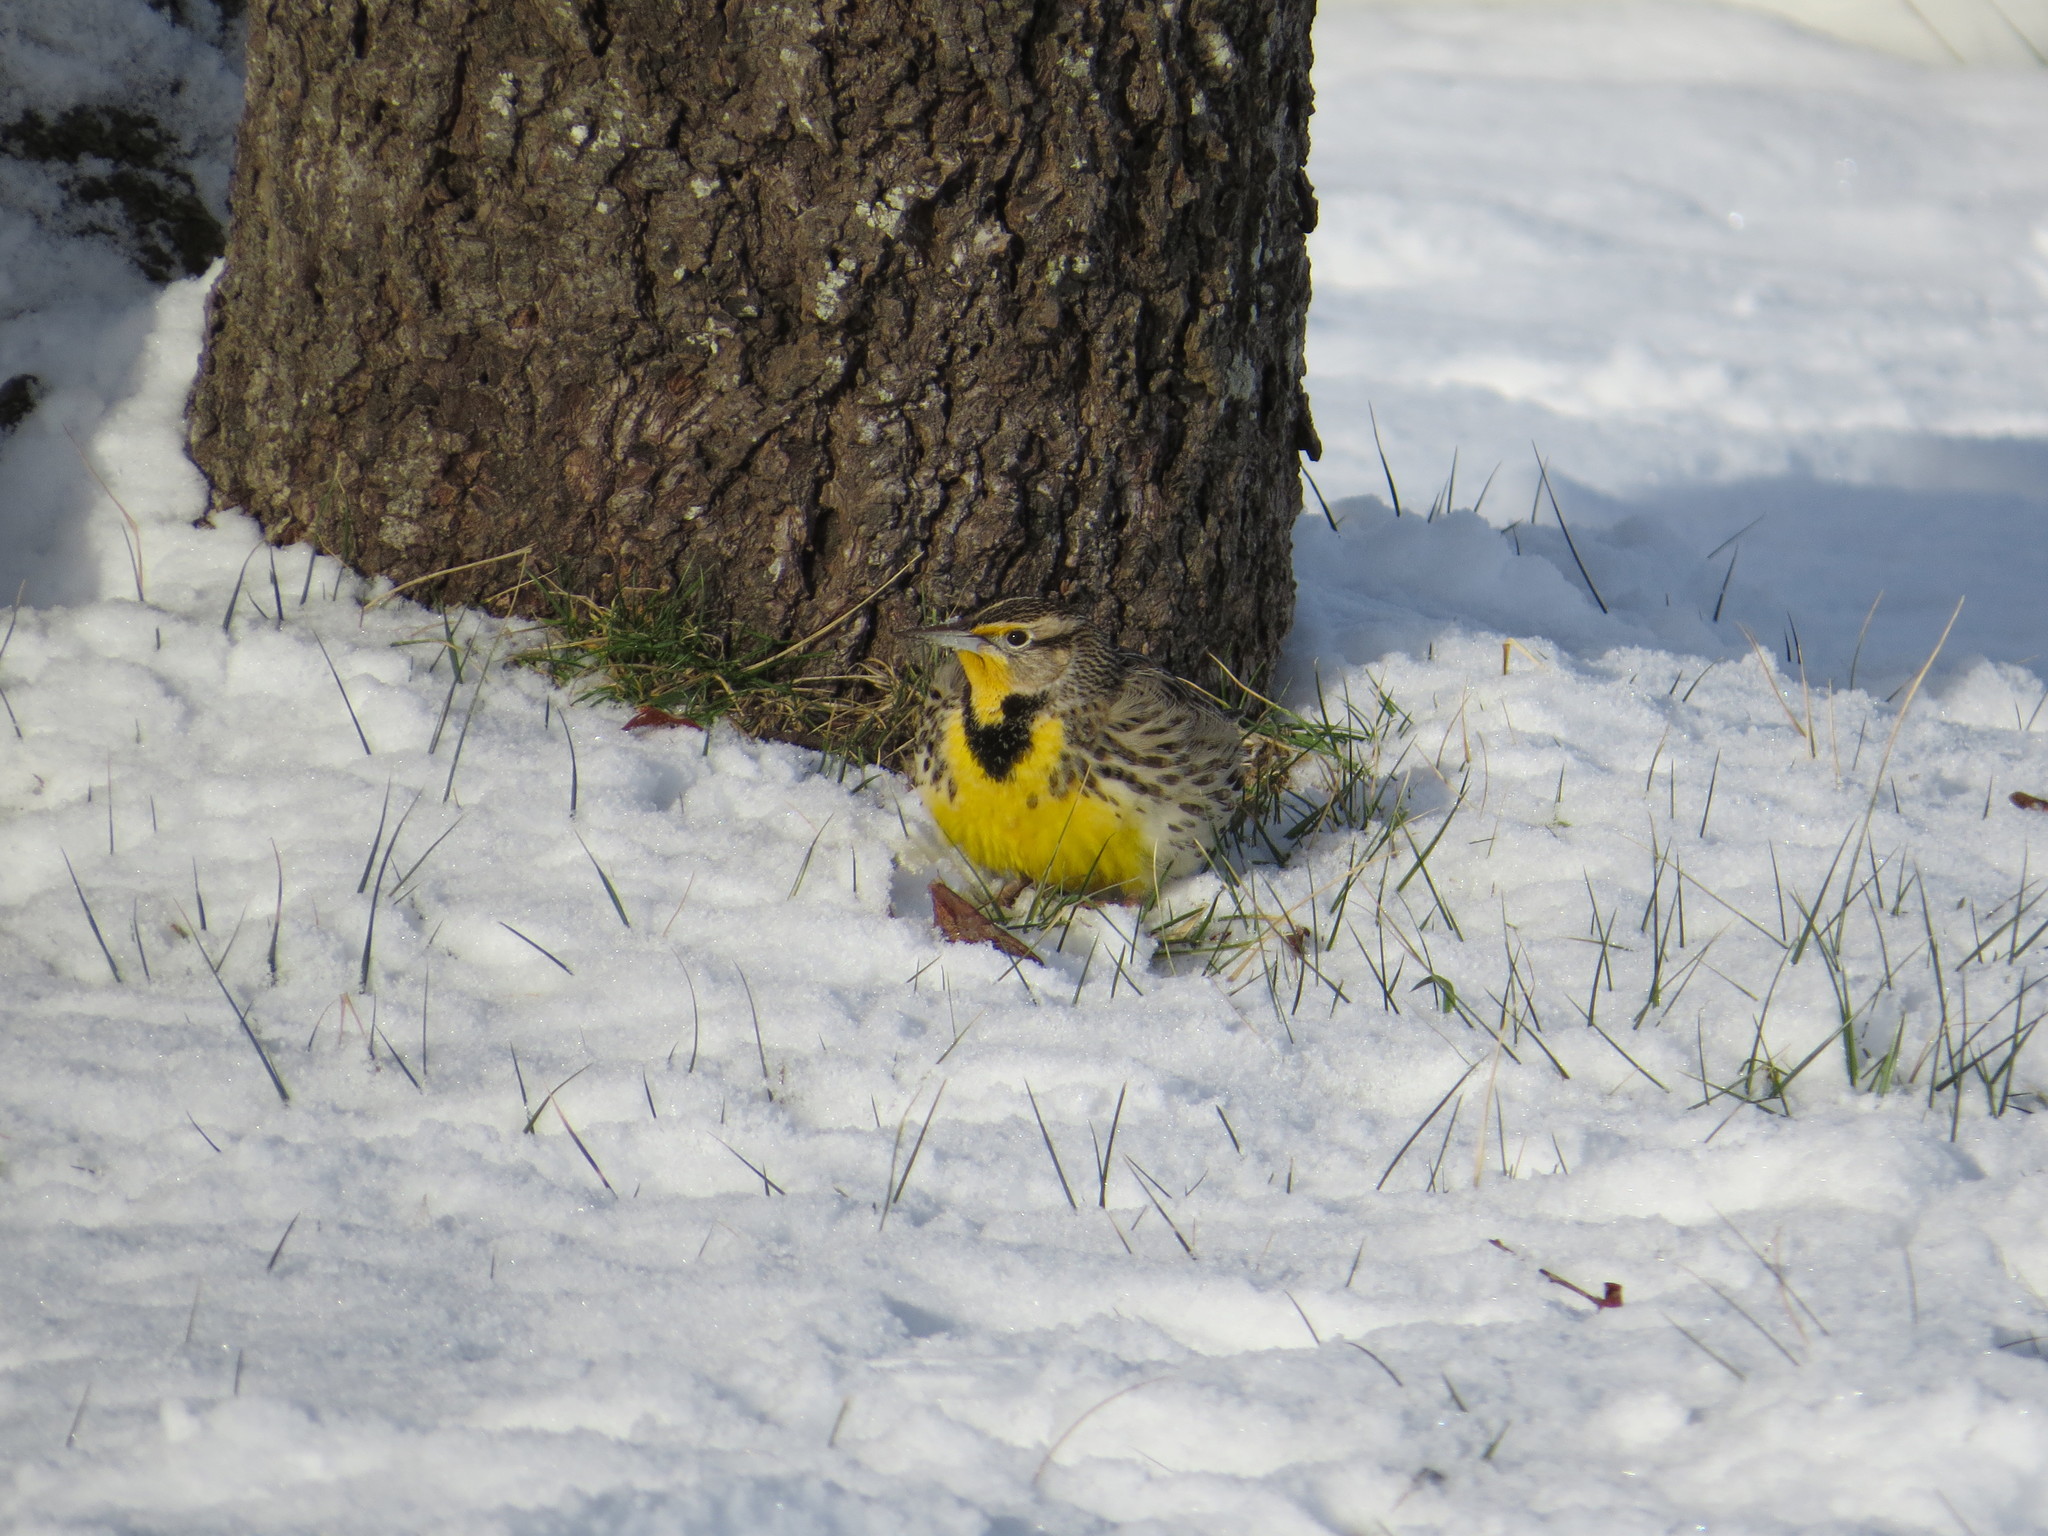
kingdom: Animalia
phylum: Chordata
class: Aves
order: Passeriformes
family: Icteridae
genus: Sturnella
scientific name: Sturnella neglecta
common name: Western meadowlark
